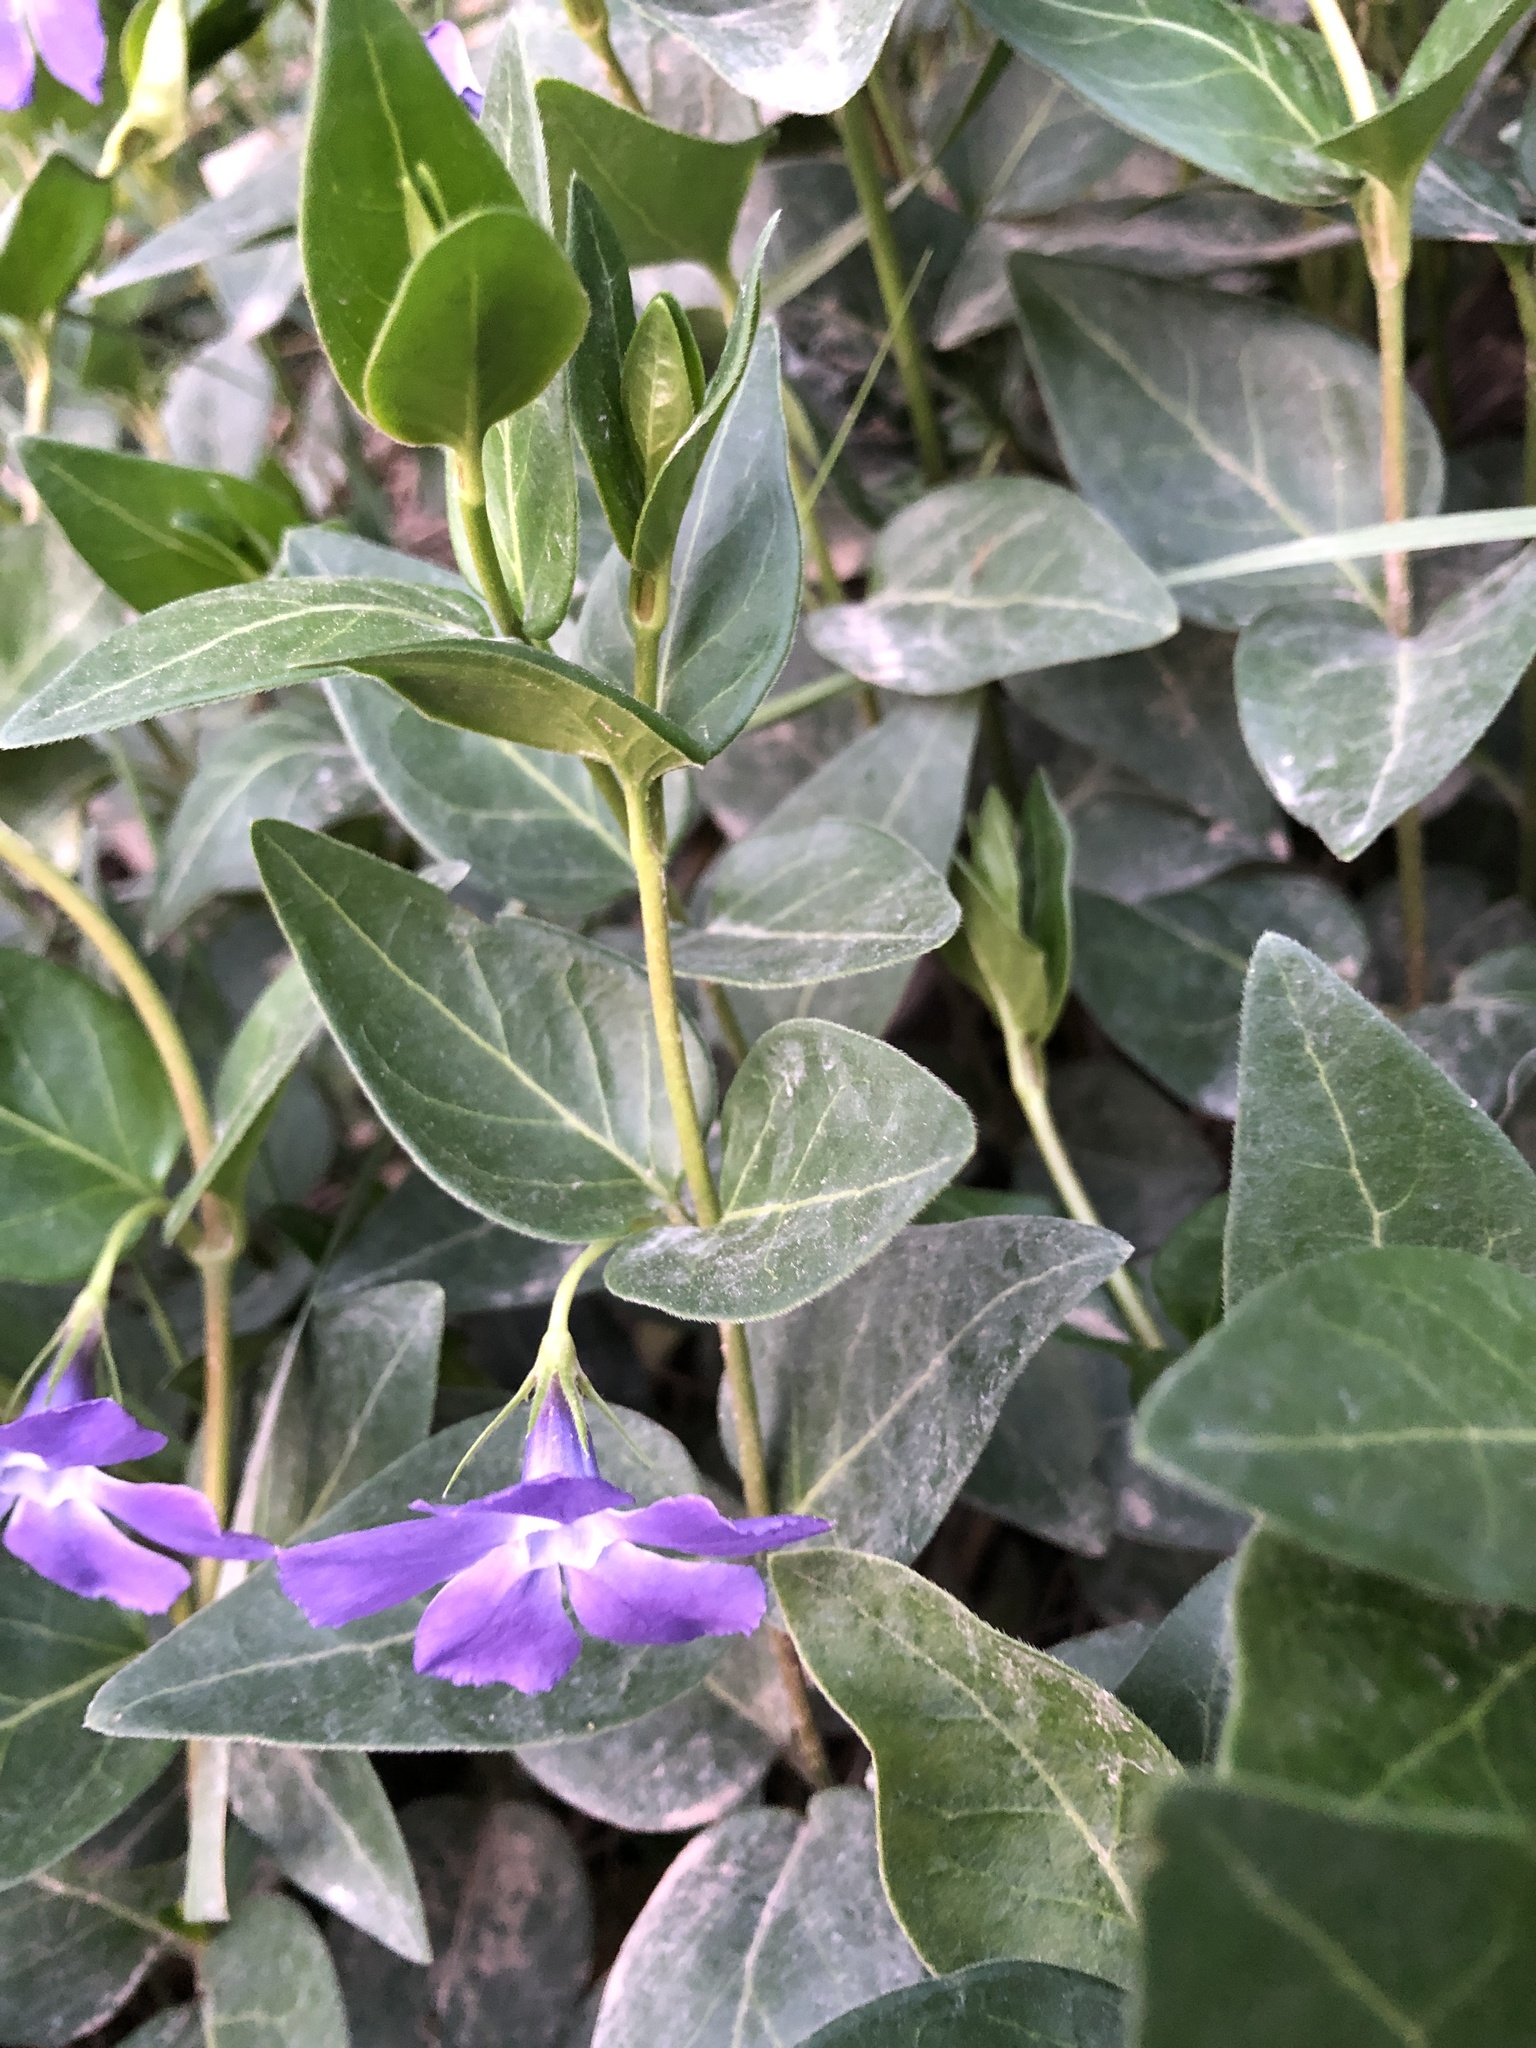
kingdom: Plantae
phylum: Tracheophyta
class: Magnoliopsida
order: Gentianales
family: Apocynaceae
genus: Vinca
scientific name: Vinca major
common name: Greater periwinkle
